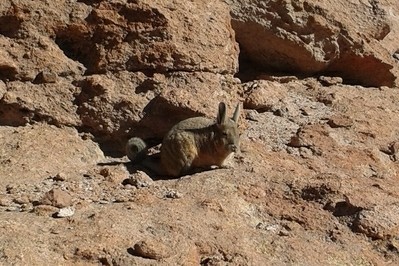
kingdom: Animalia
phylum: Chordata
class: Mammalia
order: Rodentia
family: Chinchillidae
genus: Lagidium
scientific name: Lagidium viscacia
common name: Southern viscacha
